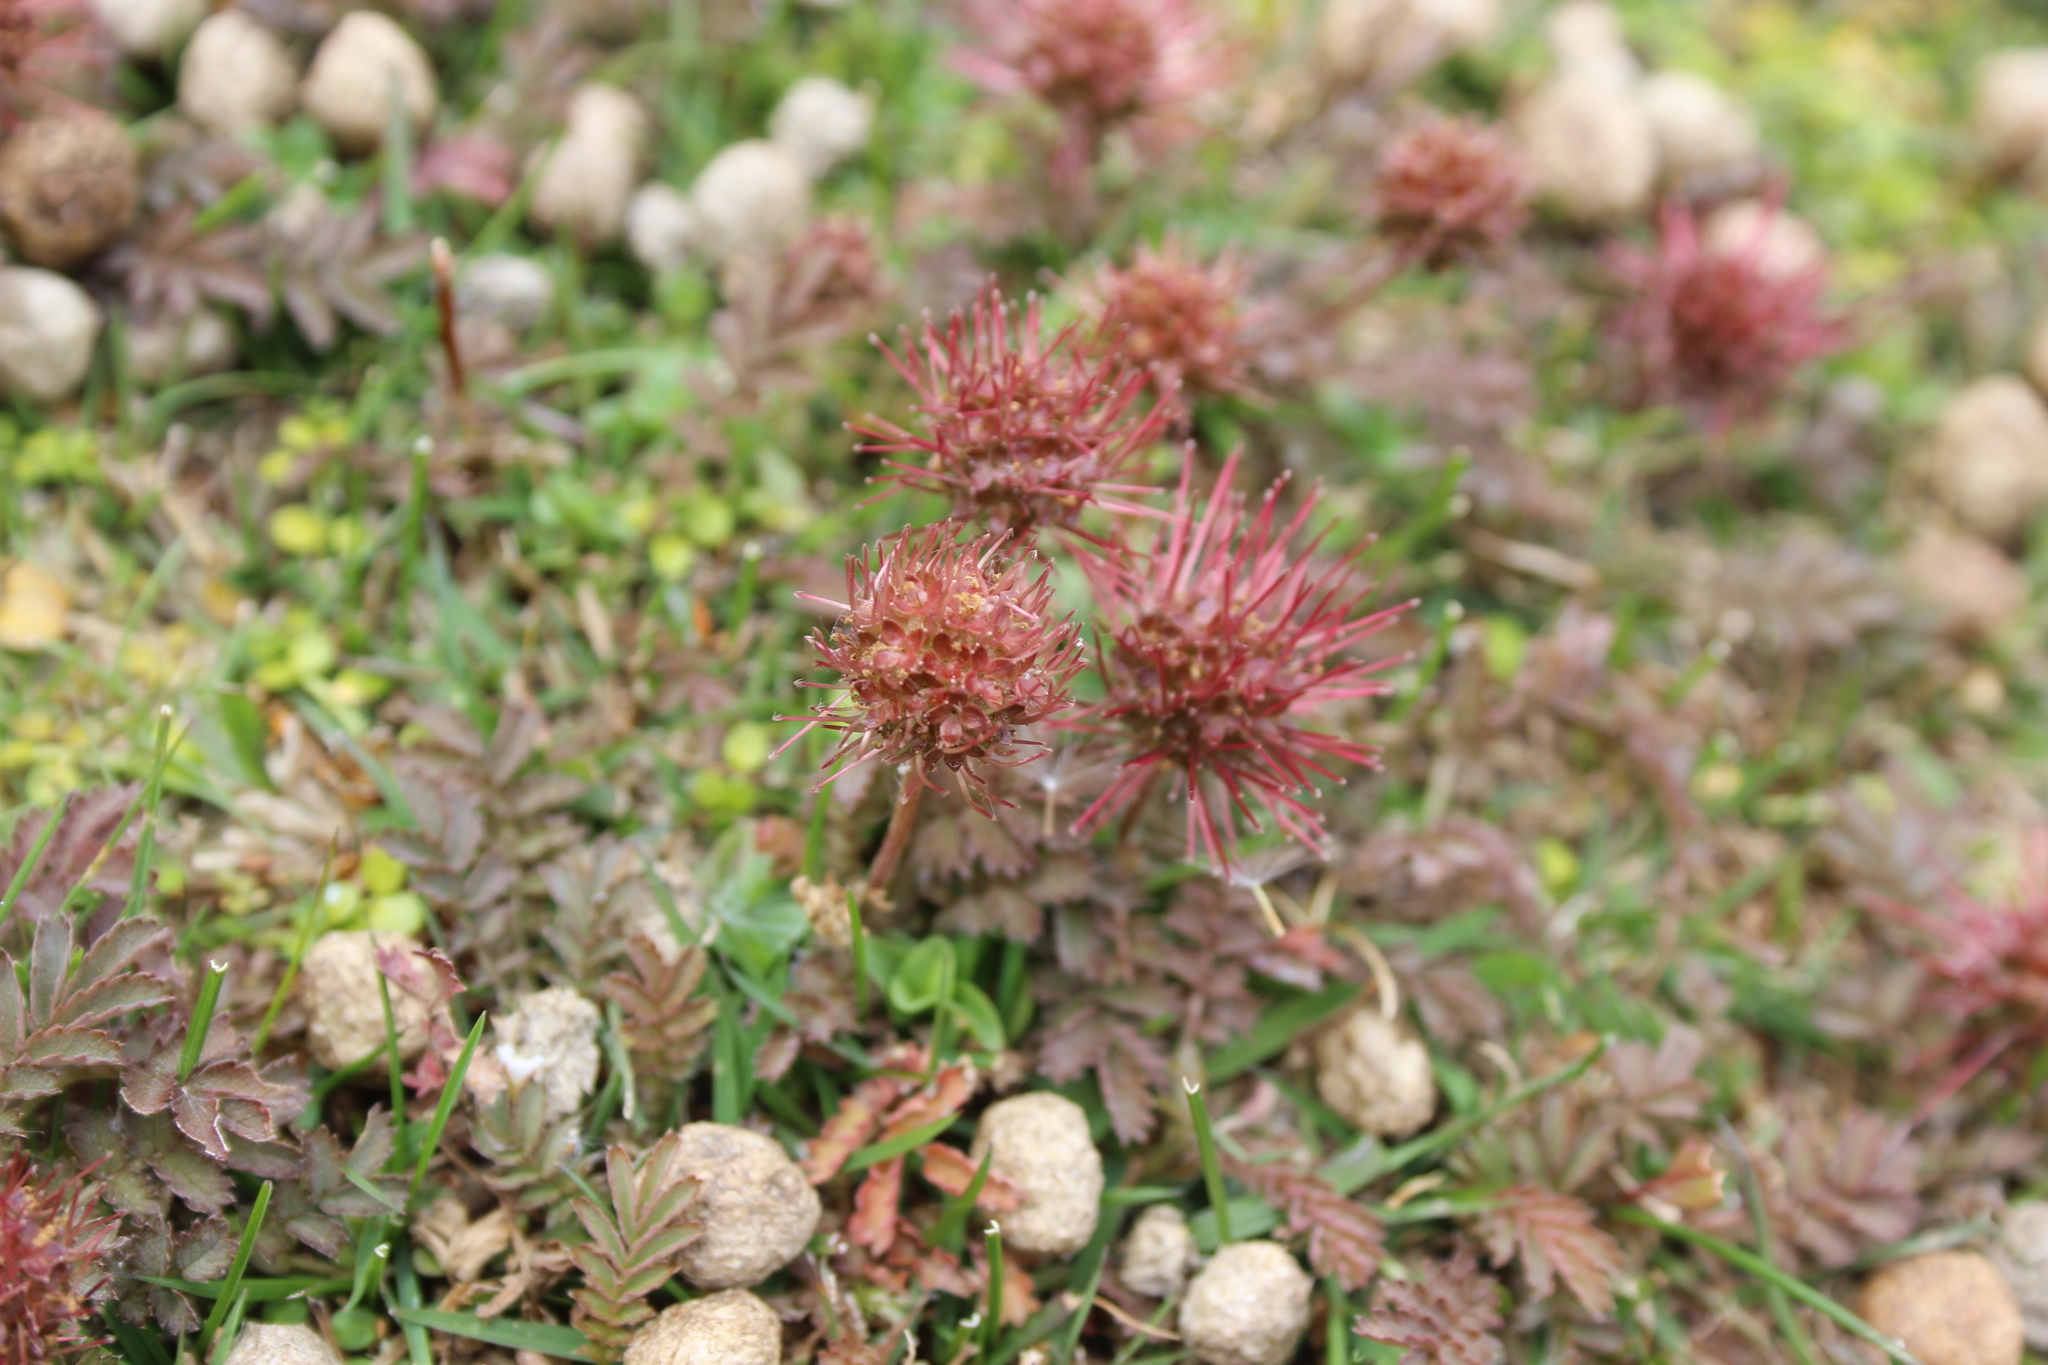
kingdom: Plantae
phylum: Tracheophyta
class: Magnoliopsida
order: Rosales
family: Rosaceae
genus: Acaena
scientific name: Acaena inermis
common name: Spineless acaena
